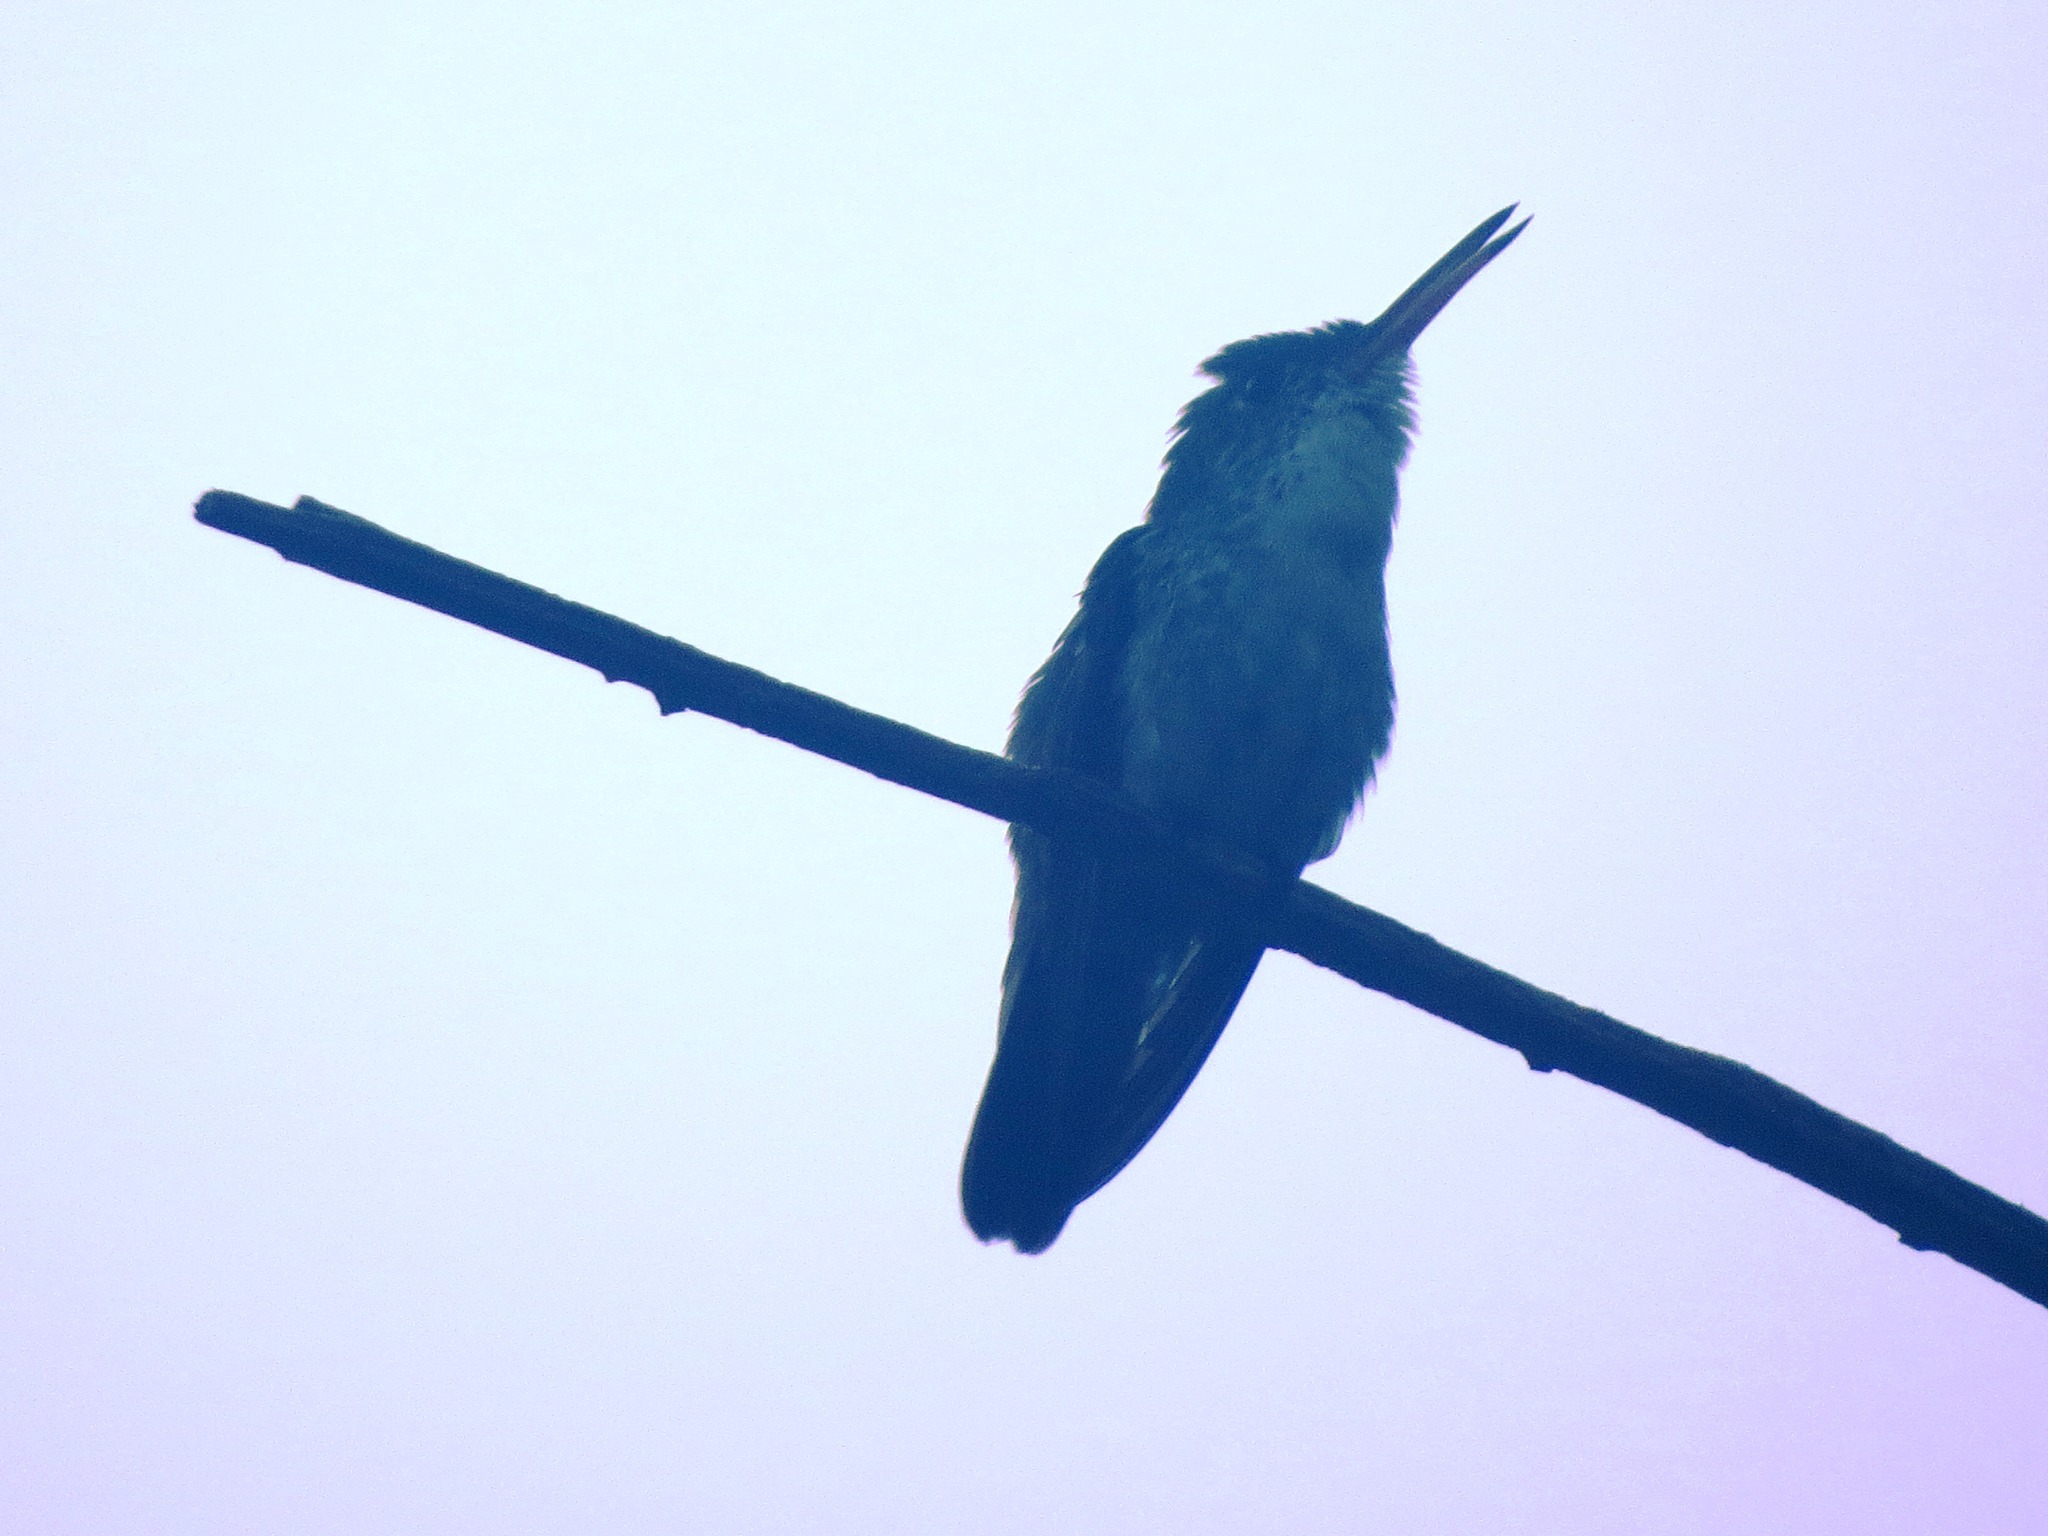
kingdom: Animalia
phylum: Chordata
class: Aves
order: Apodiformes
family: Trochilidae
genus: Chlorestes
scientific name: Chlorestes candida
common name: White-bellied emerald
